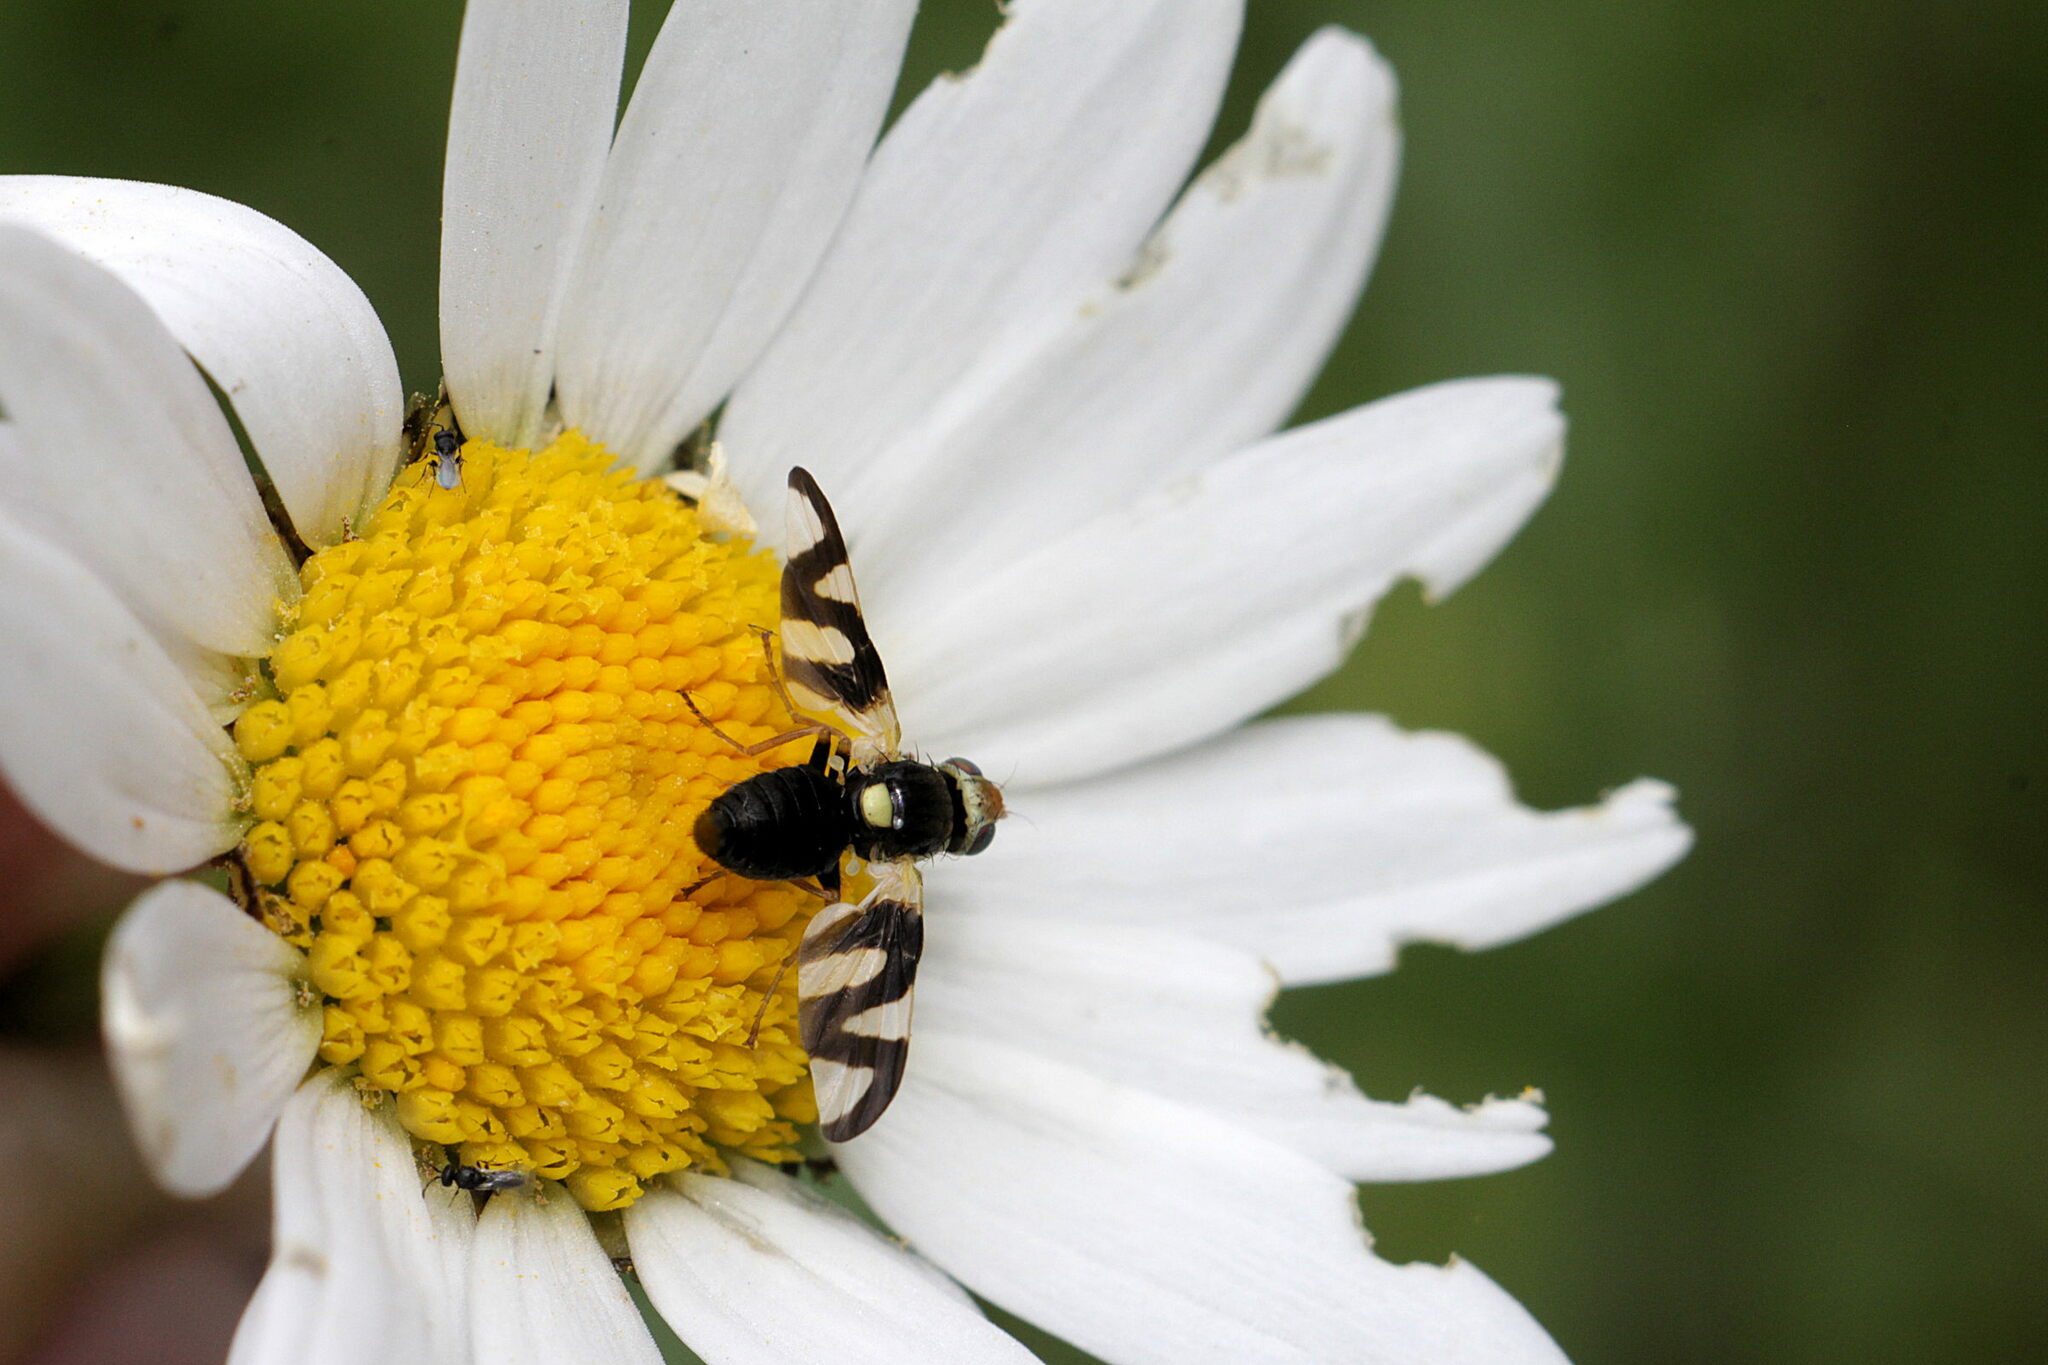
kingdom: Animalia
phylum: Arthropoda
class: Insecta
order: Diptera
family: Tephritidae
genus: Urophora
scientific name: Urophora cardui
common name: Fruit fly
